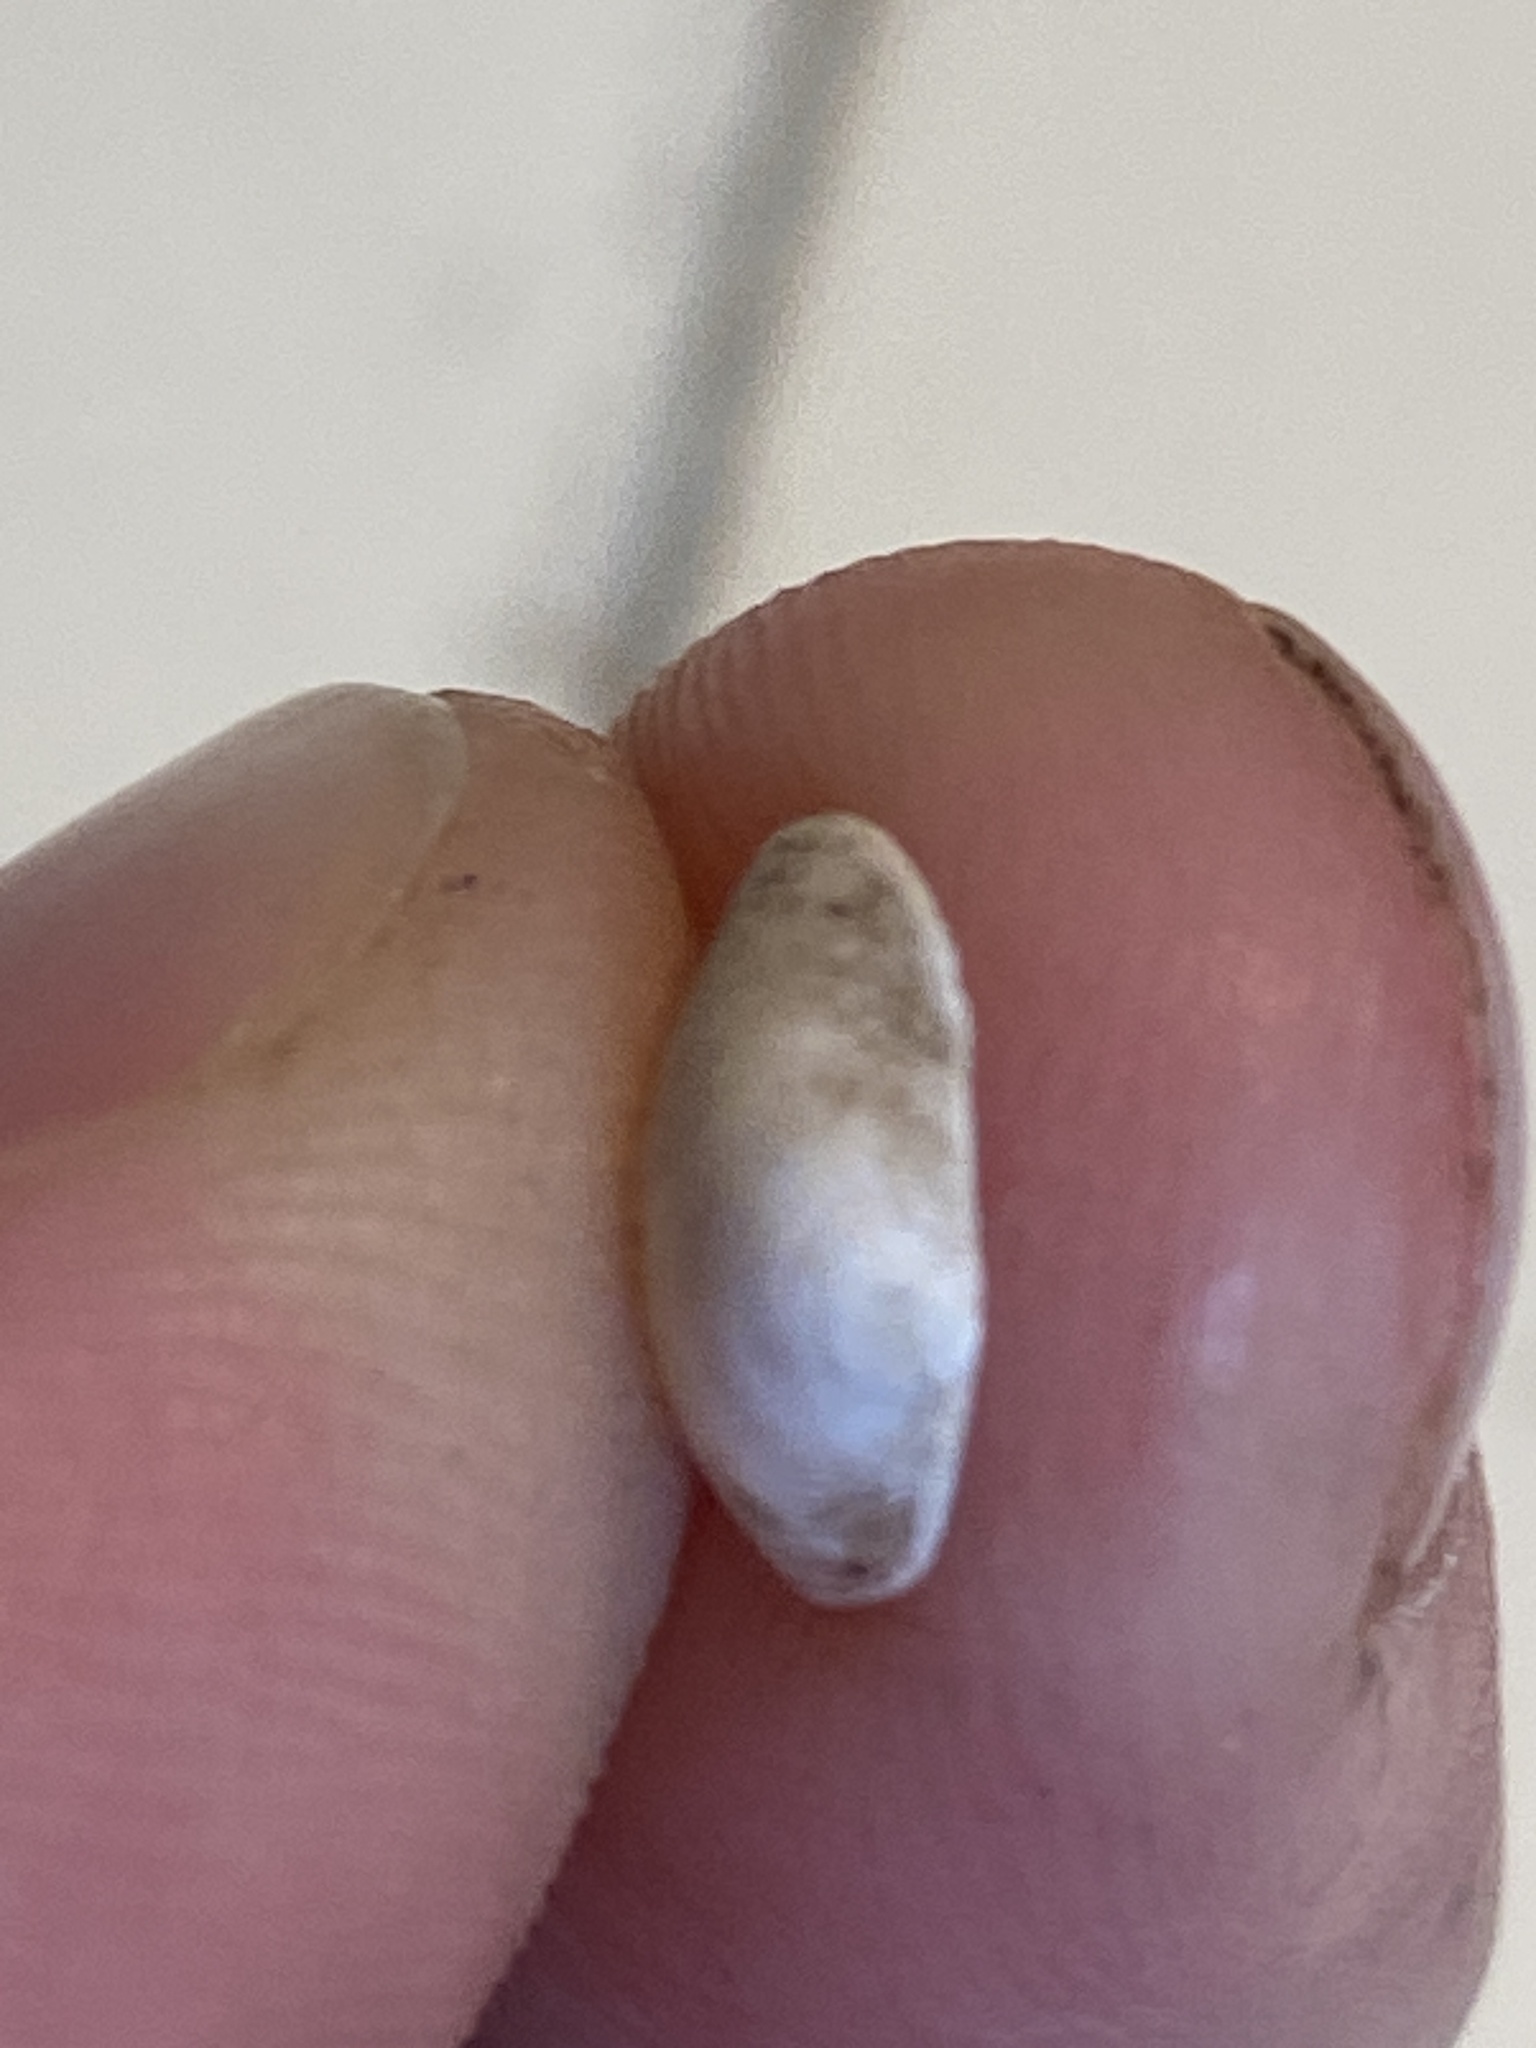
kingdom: Animalia
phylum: Mollusca
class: Bivalvia
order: Sphaeriida
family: Sphaeriidae
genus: Sphaerium
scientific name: Sphaerium striatinum
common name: Striated fingernailclam
